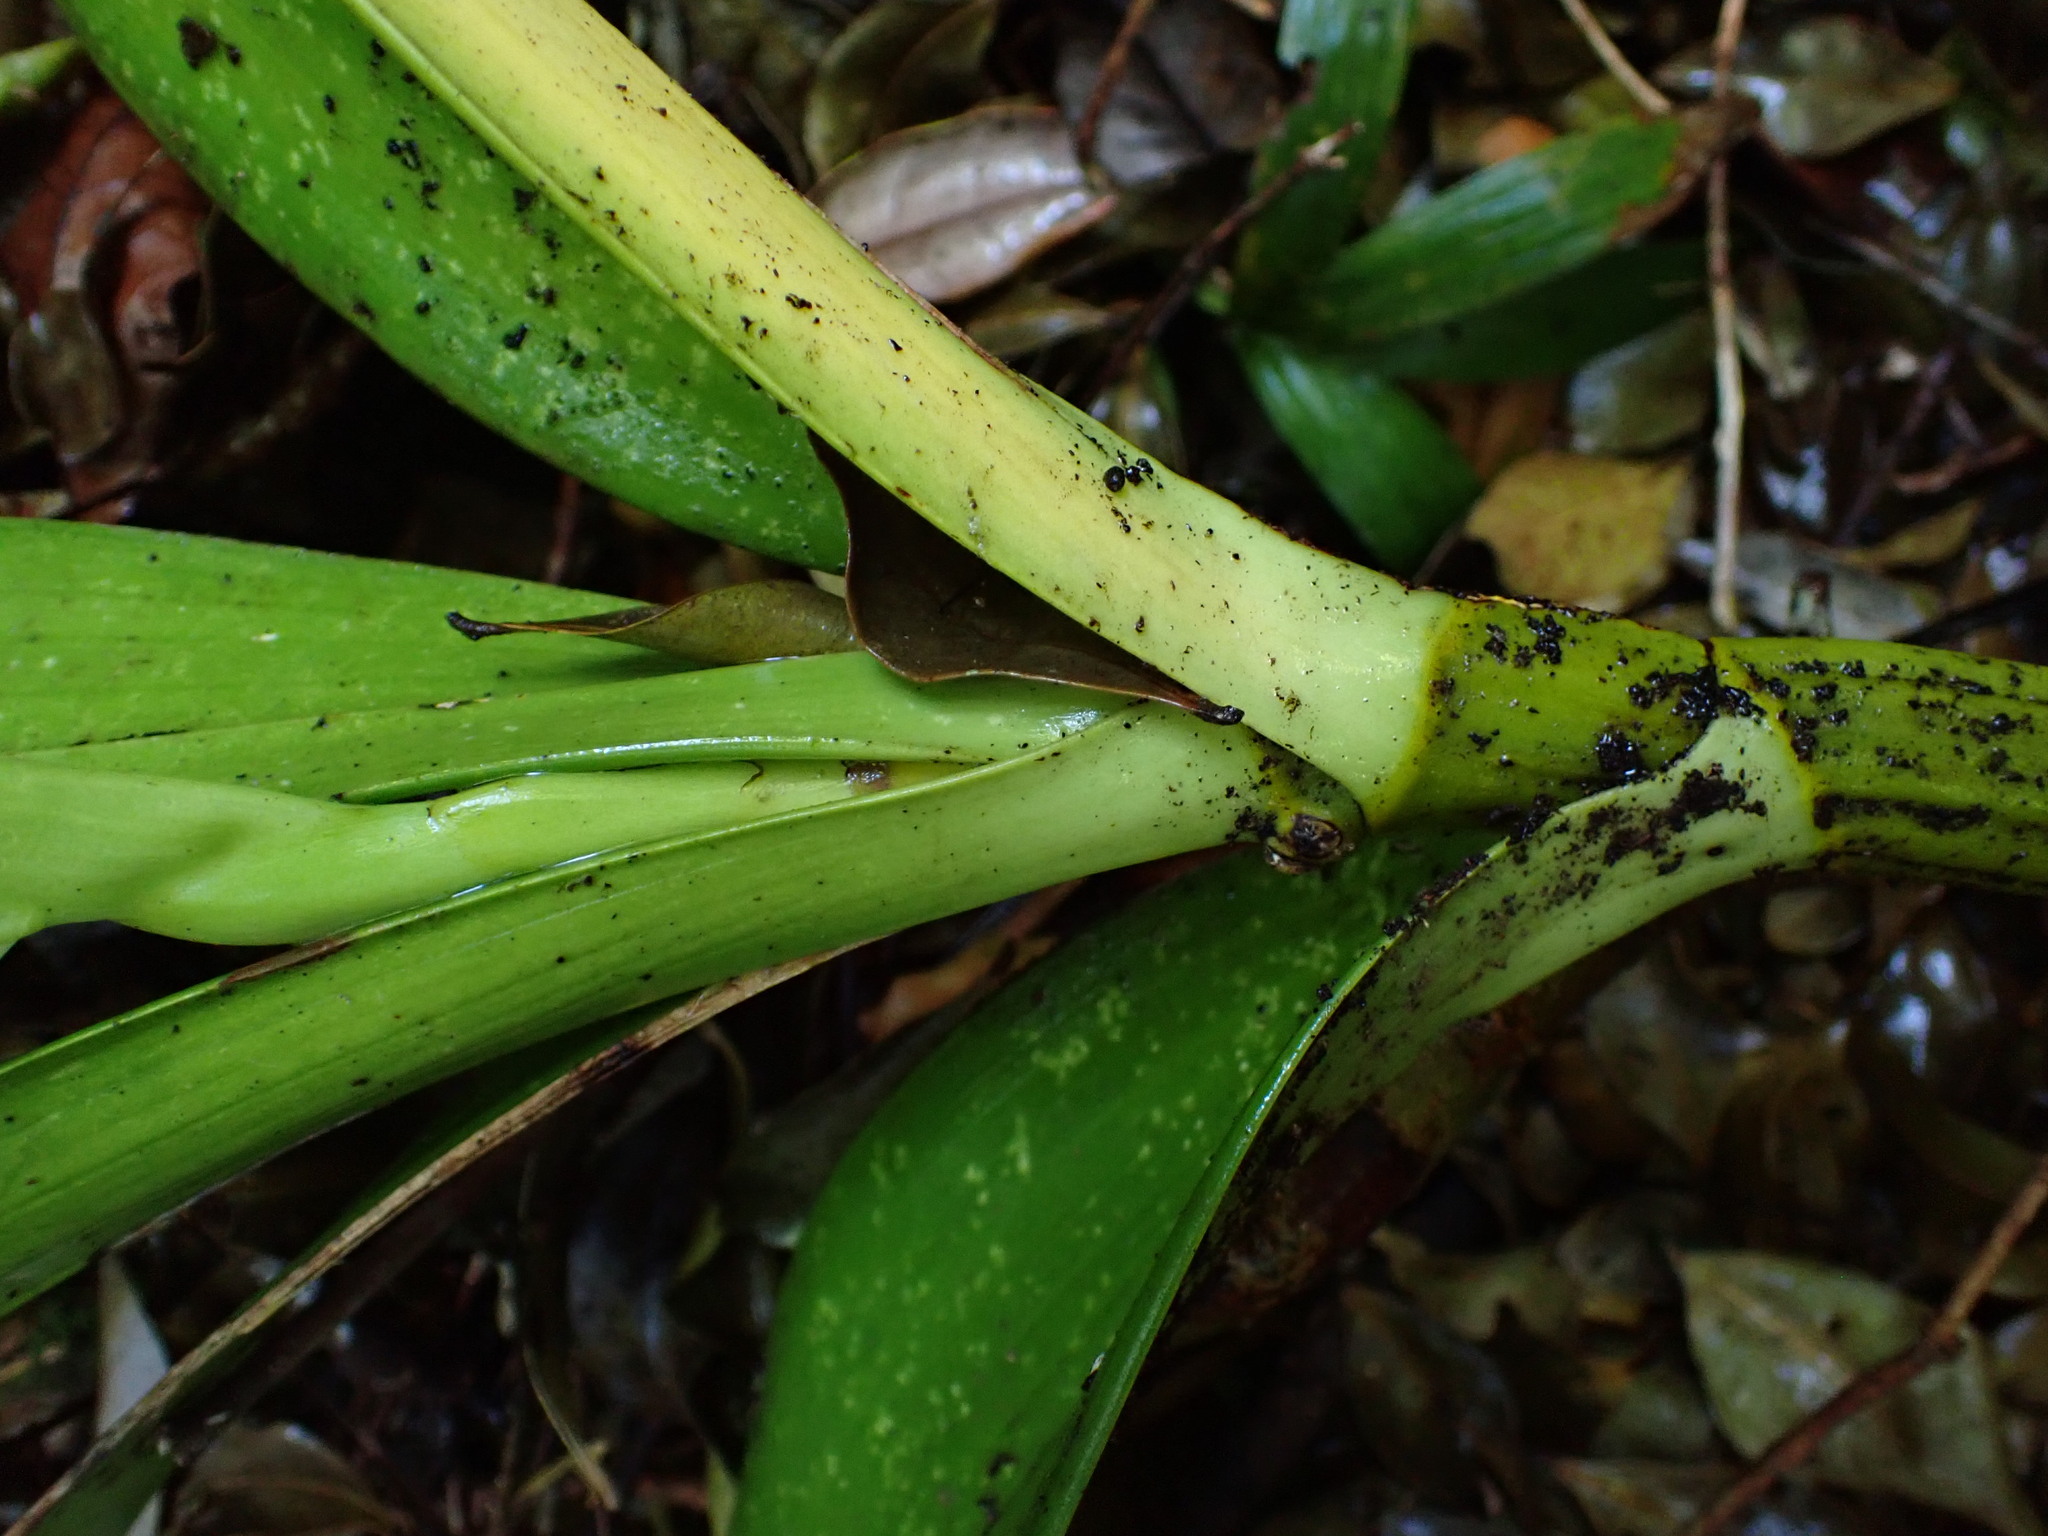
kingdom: Plantae
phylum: Tracheophyta
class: Liliopsida
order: Asparagales
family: Orchidaceae
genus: Dendrobium
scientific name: Dendrobium speciosum
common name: Rock-lily
